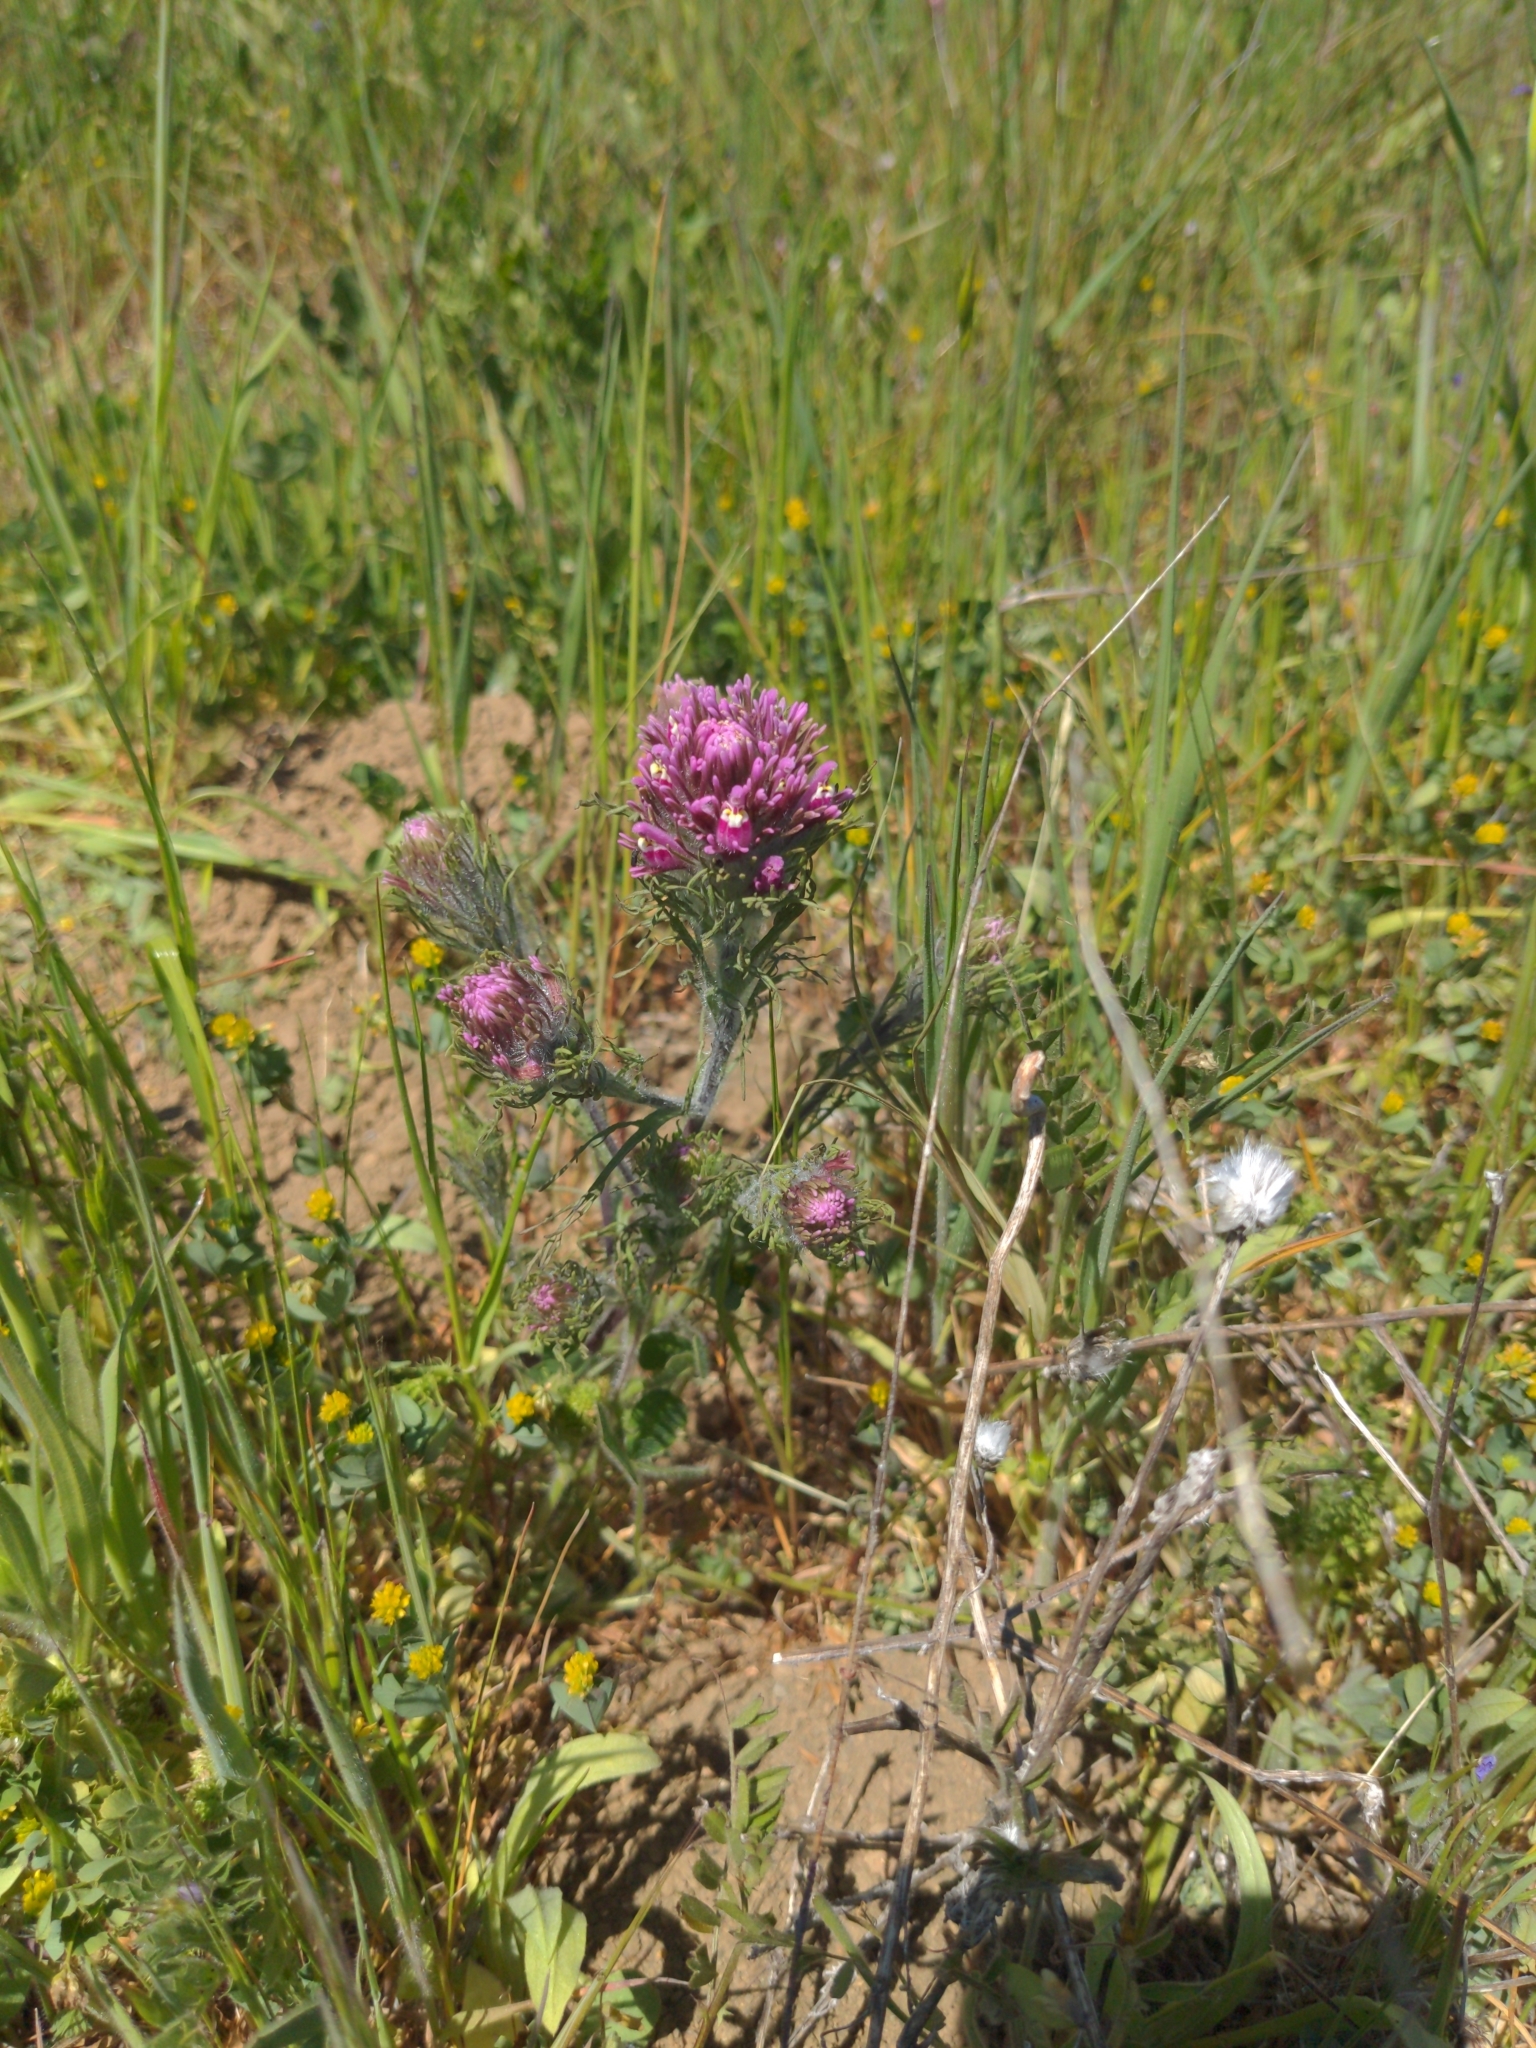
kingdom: Plantae
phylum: Tracheophyta
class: Magnoliopsida
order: Lamiales
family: Orobanchaceae
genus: Castilleja
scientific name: Castilleja exserta
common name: Purple owl-clover
